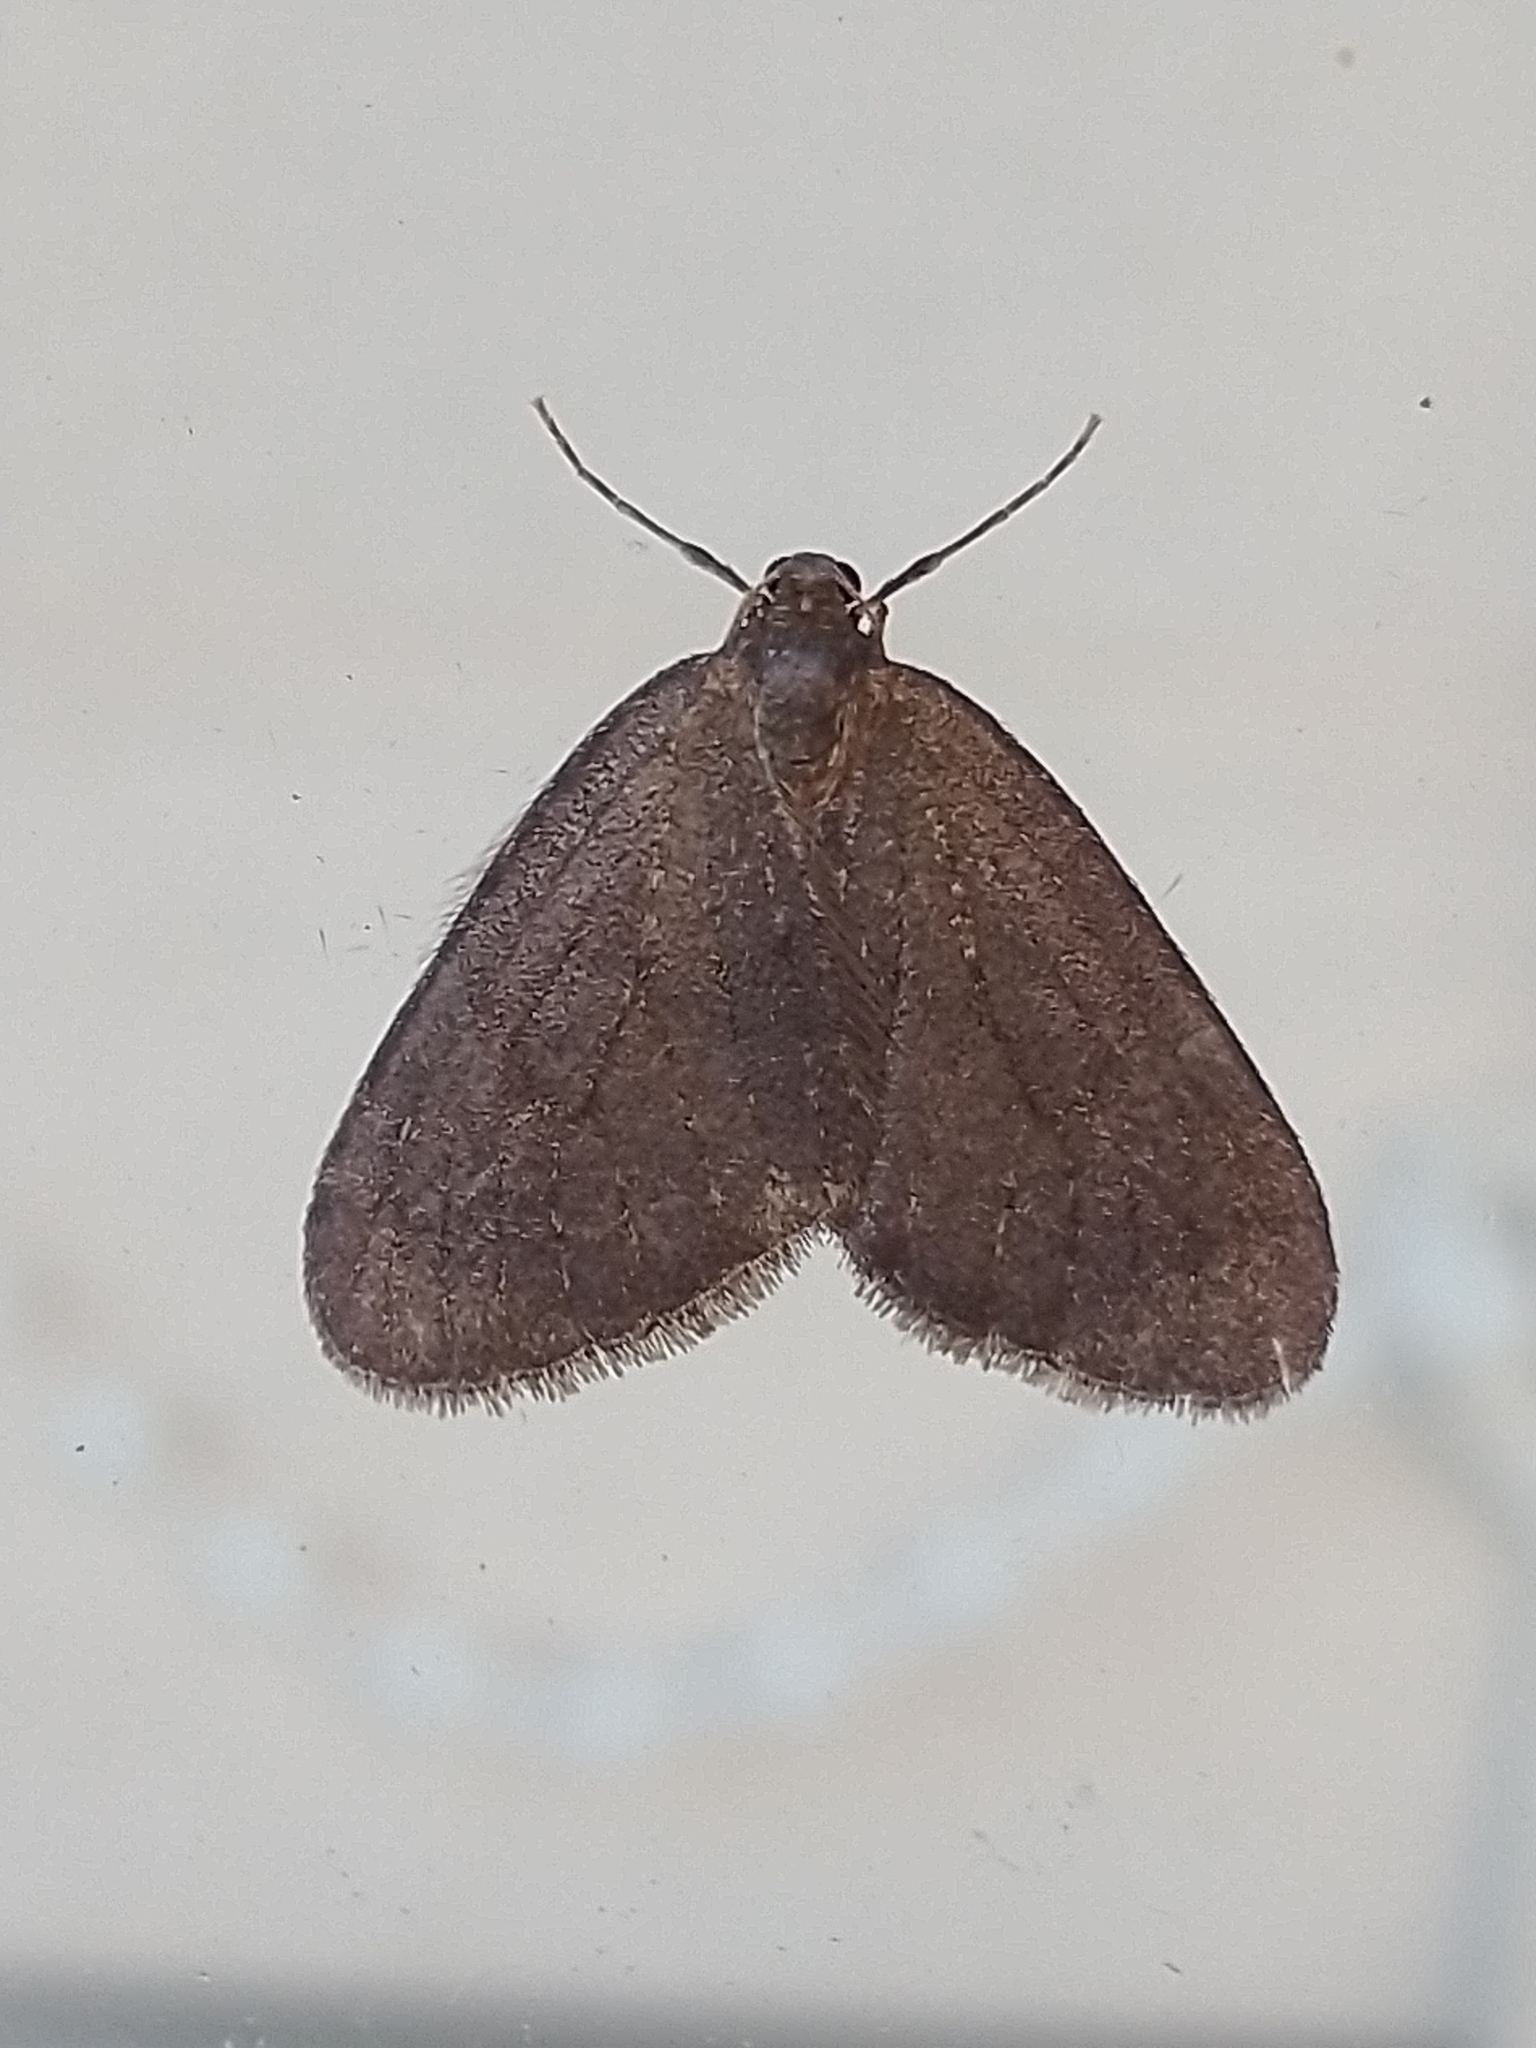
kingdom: Animalia
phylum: Arthropoda
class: Insecta
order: Lepidoptera
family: Geometridae
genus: Operophtera
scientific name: Operophtera brumata
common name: Winter moth
